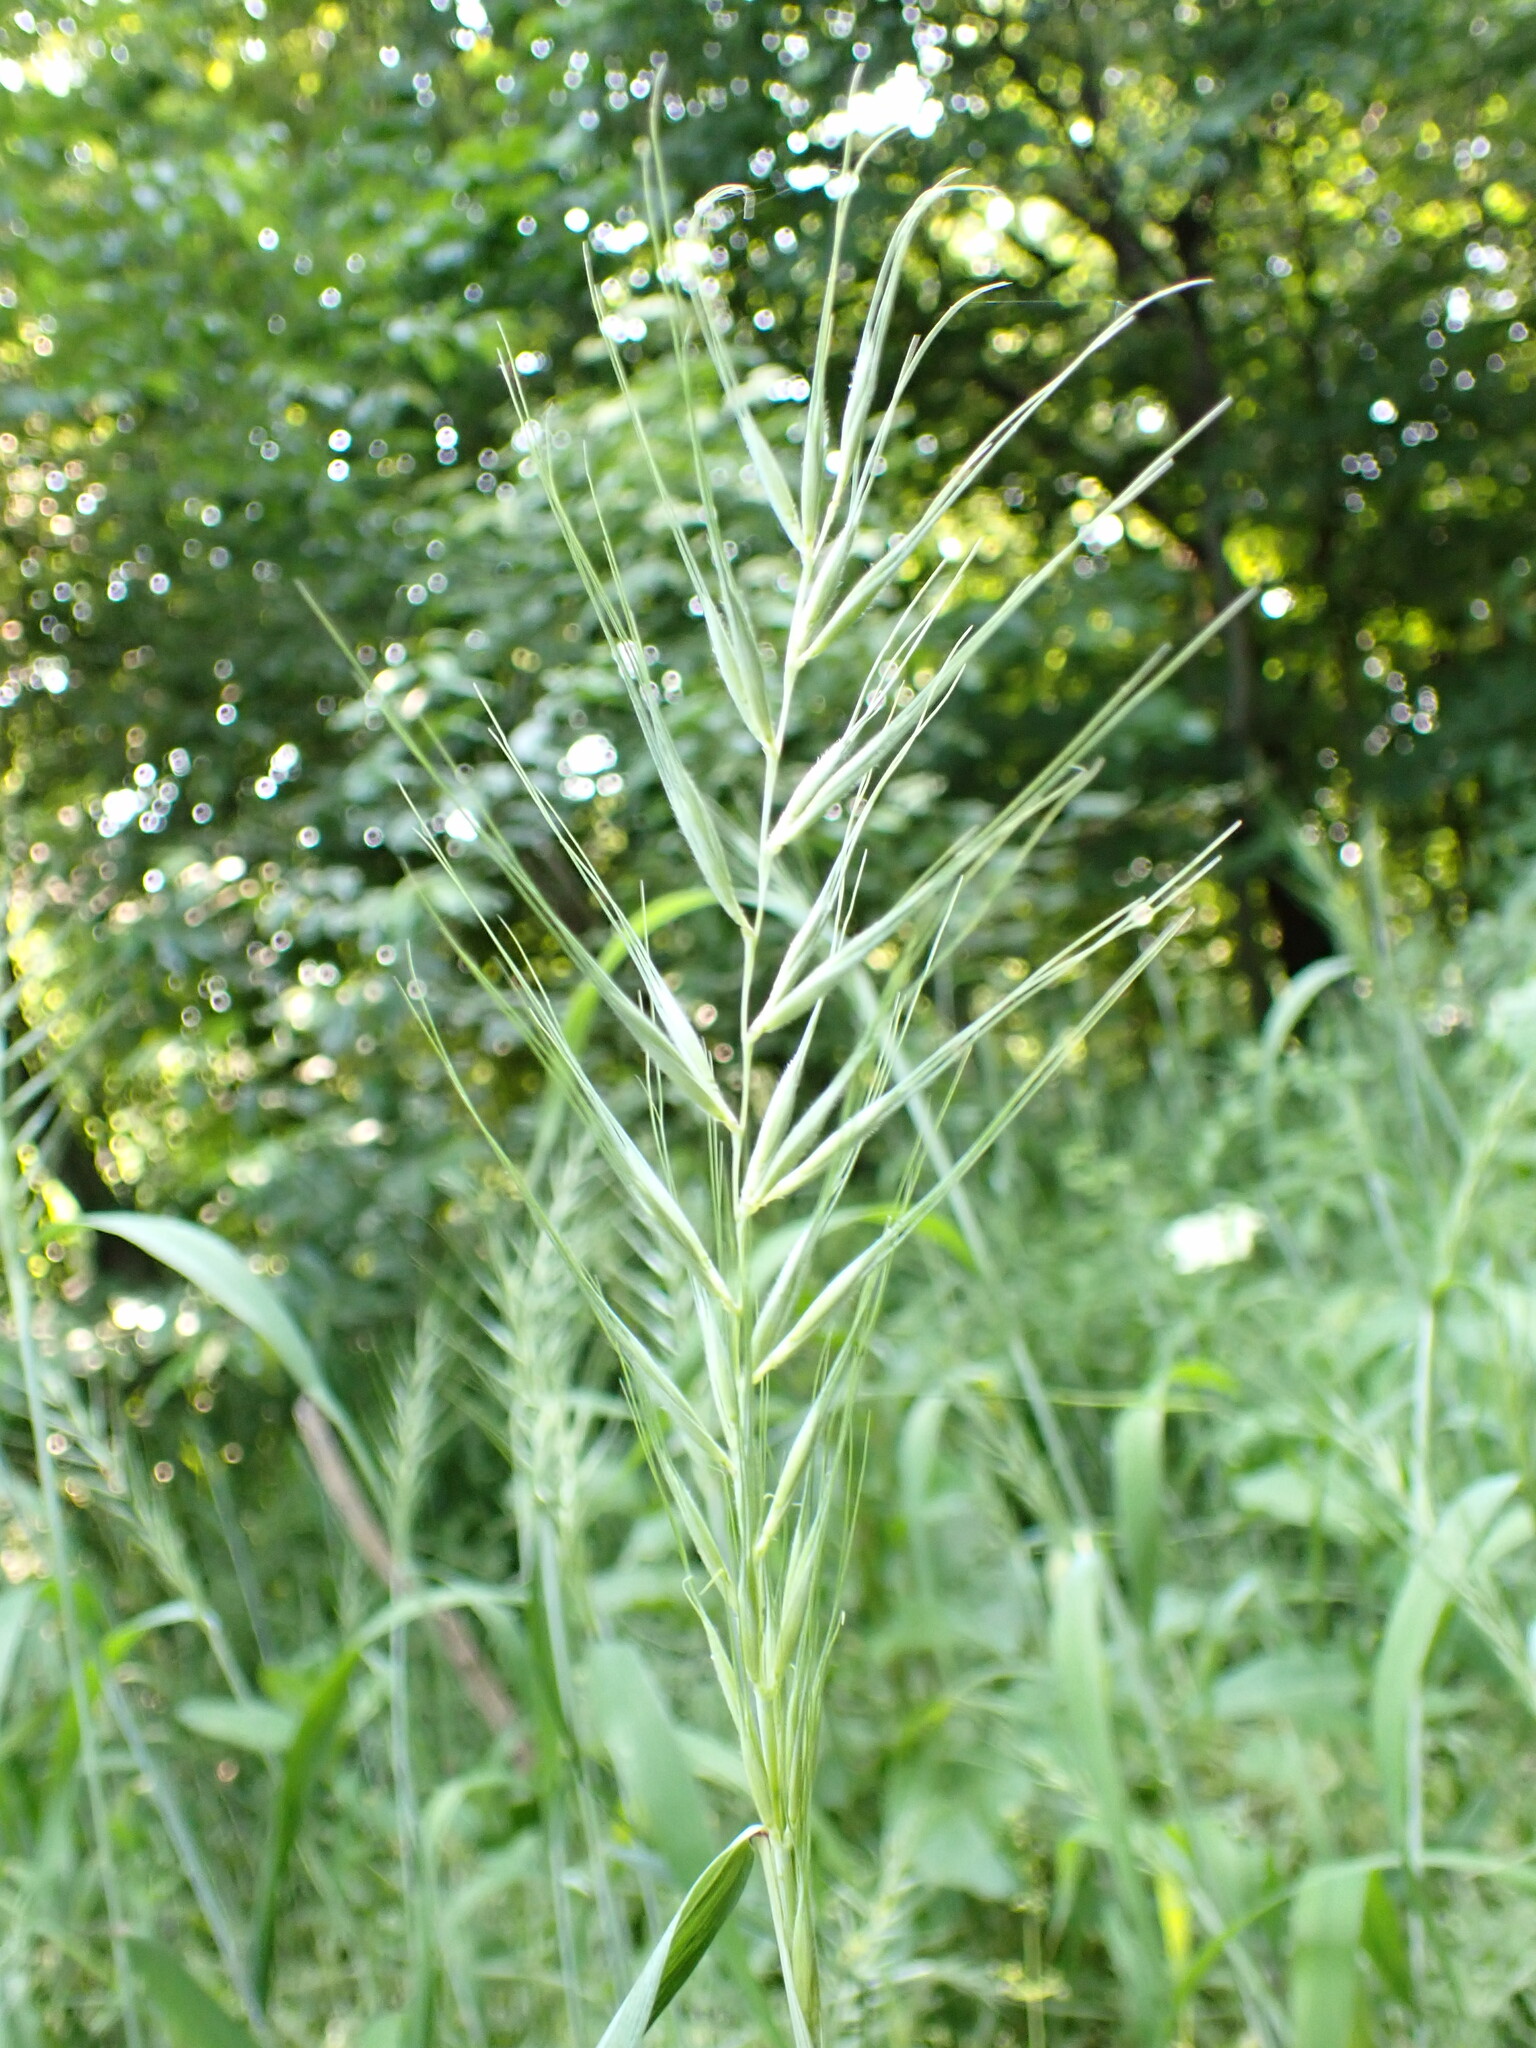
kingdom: Plantae
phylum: Tracheophyta
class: Liliopsida
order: Poales
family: Poaceae
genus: Elymus
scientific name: Elymus hystrix
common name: Bottlebrush grass
